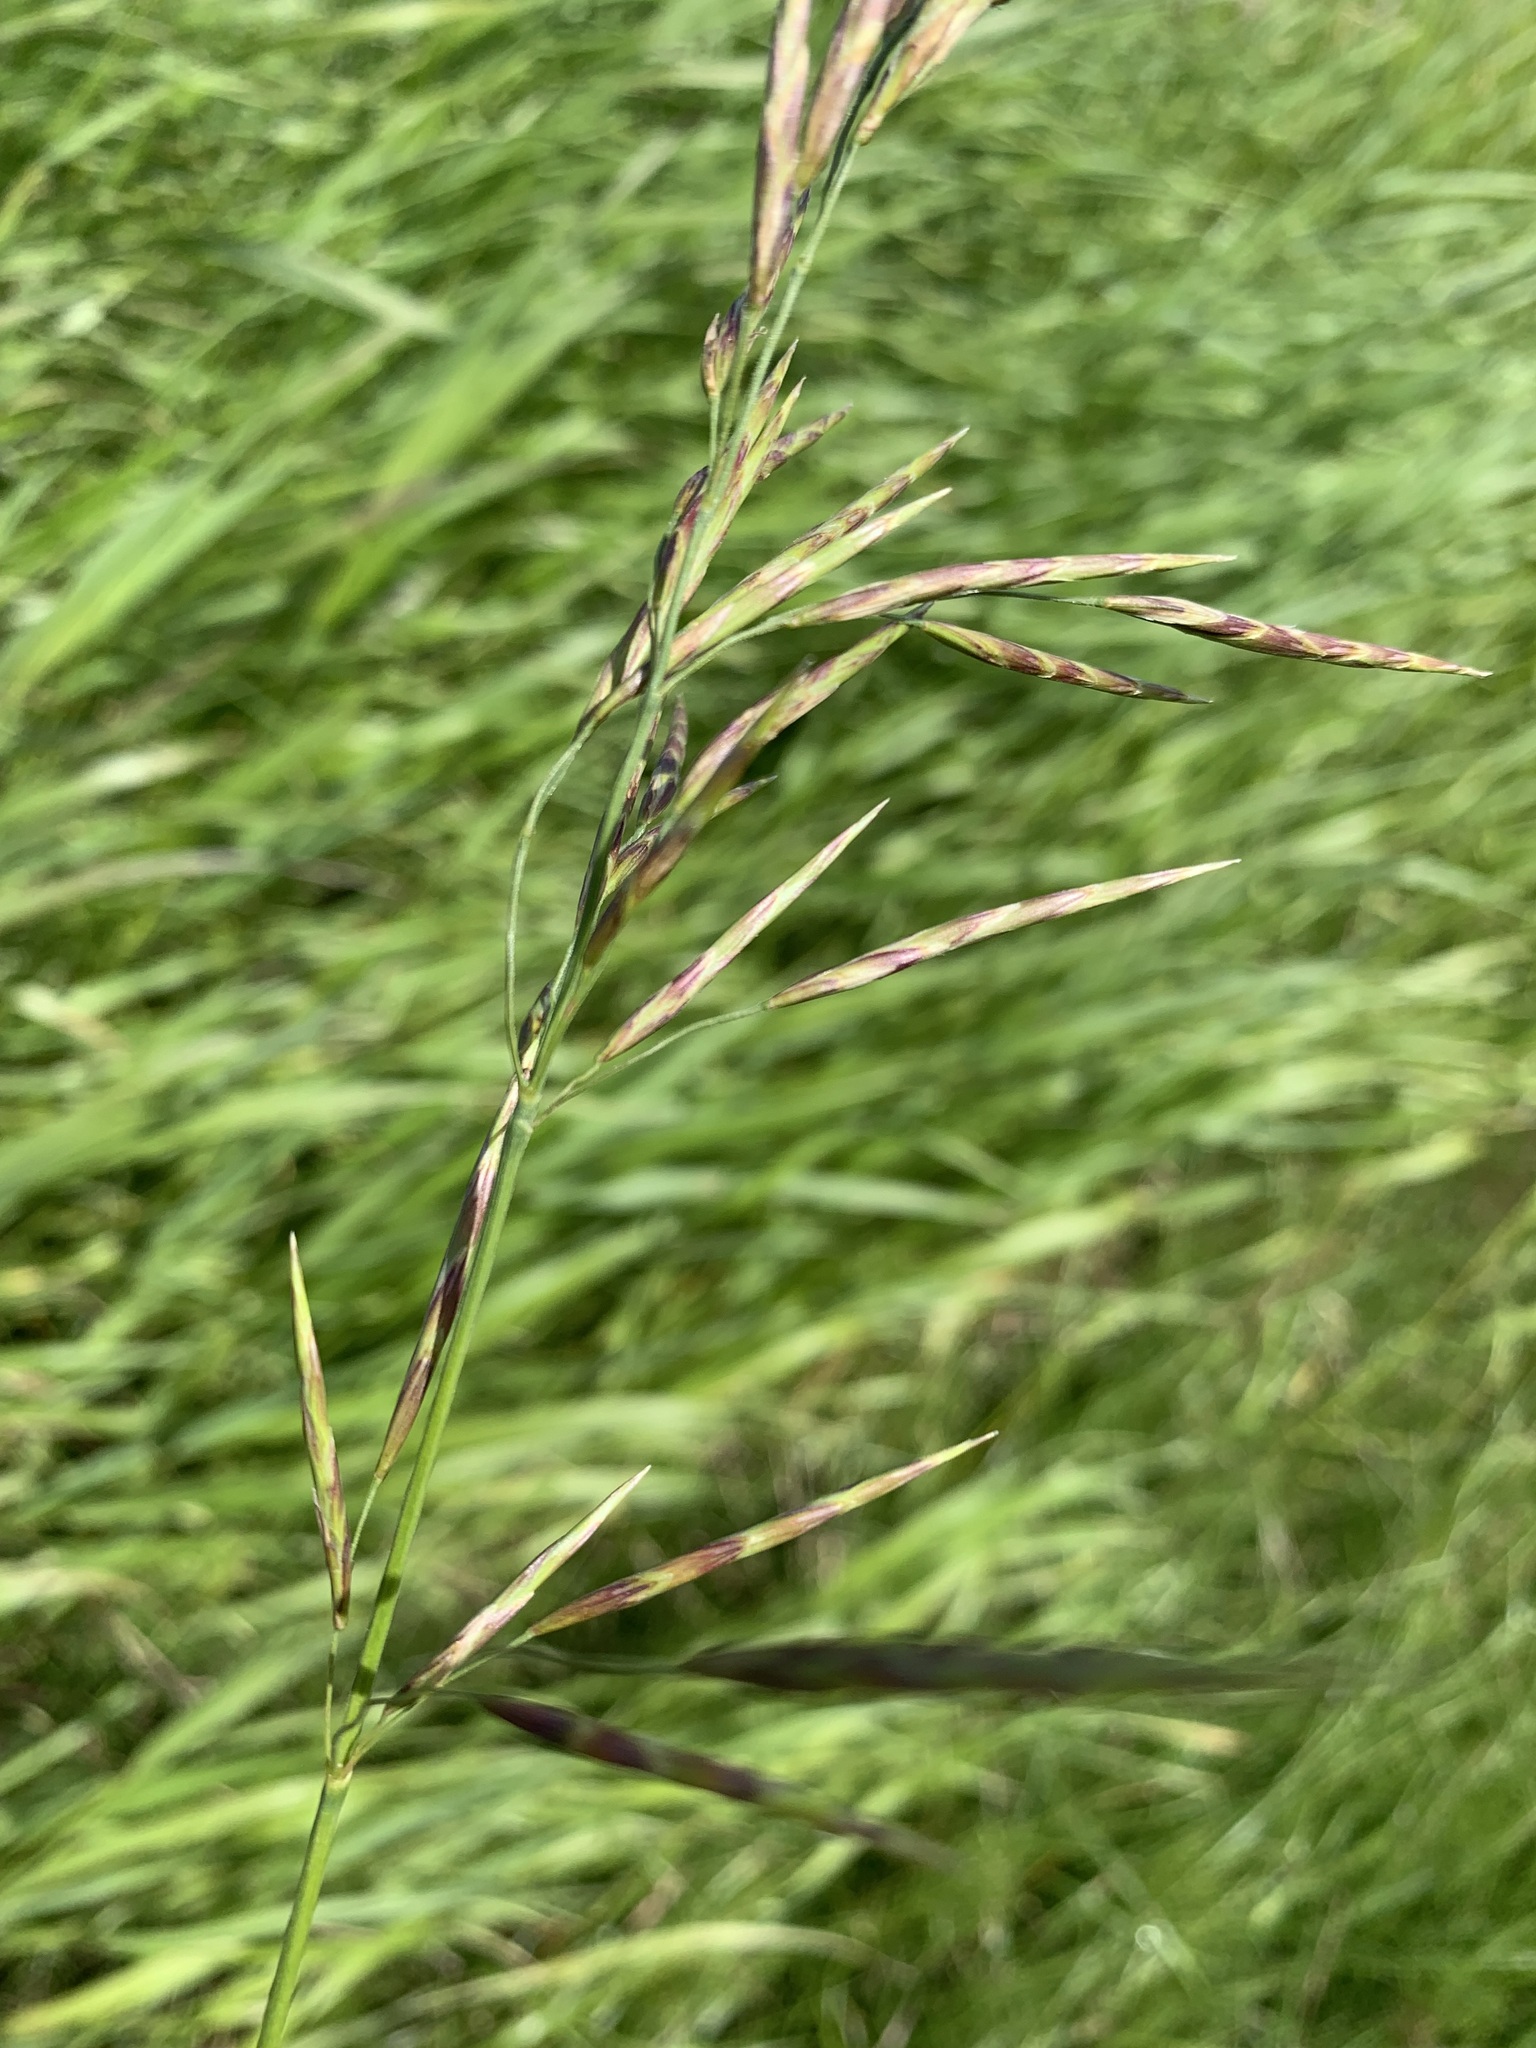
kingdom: Plantae
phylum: Tracheophyta
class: Liliopsida
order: Poales
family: Poaceae
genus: Bromus
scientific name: Bromus inermis
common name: Smooth brome
